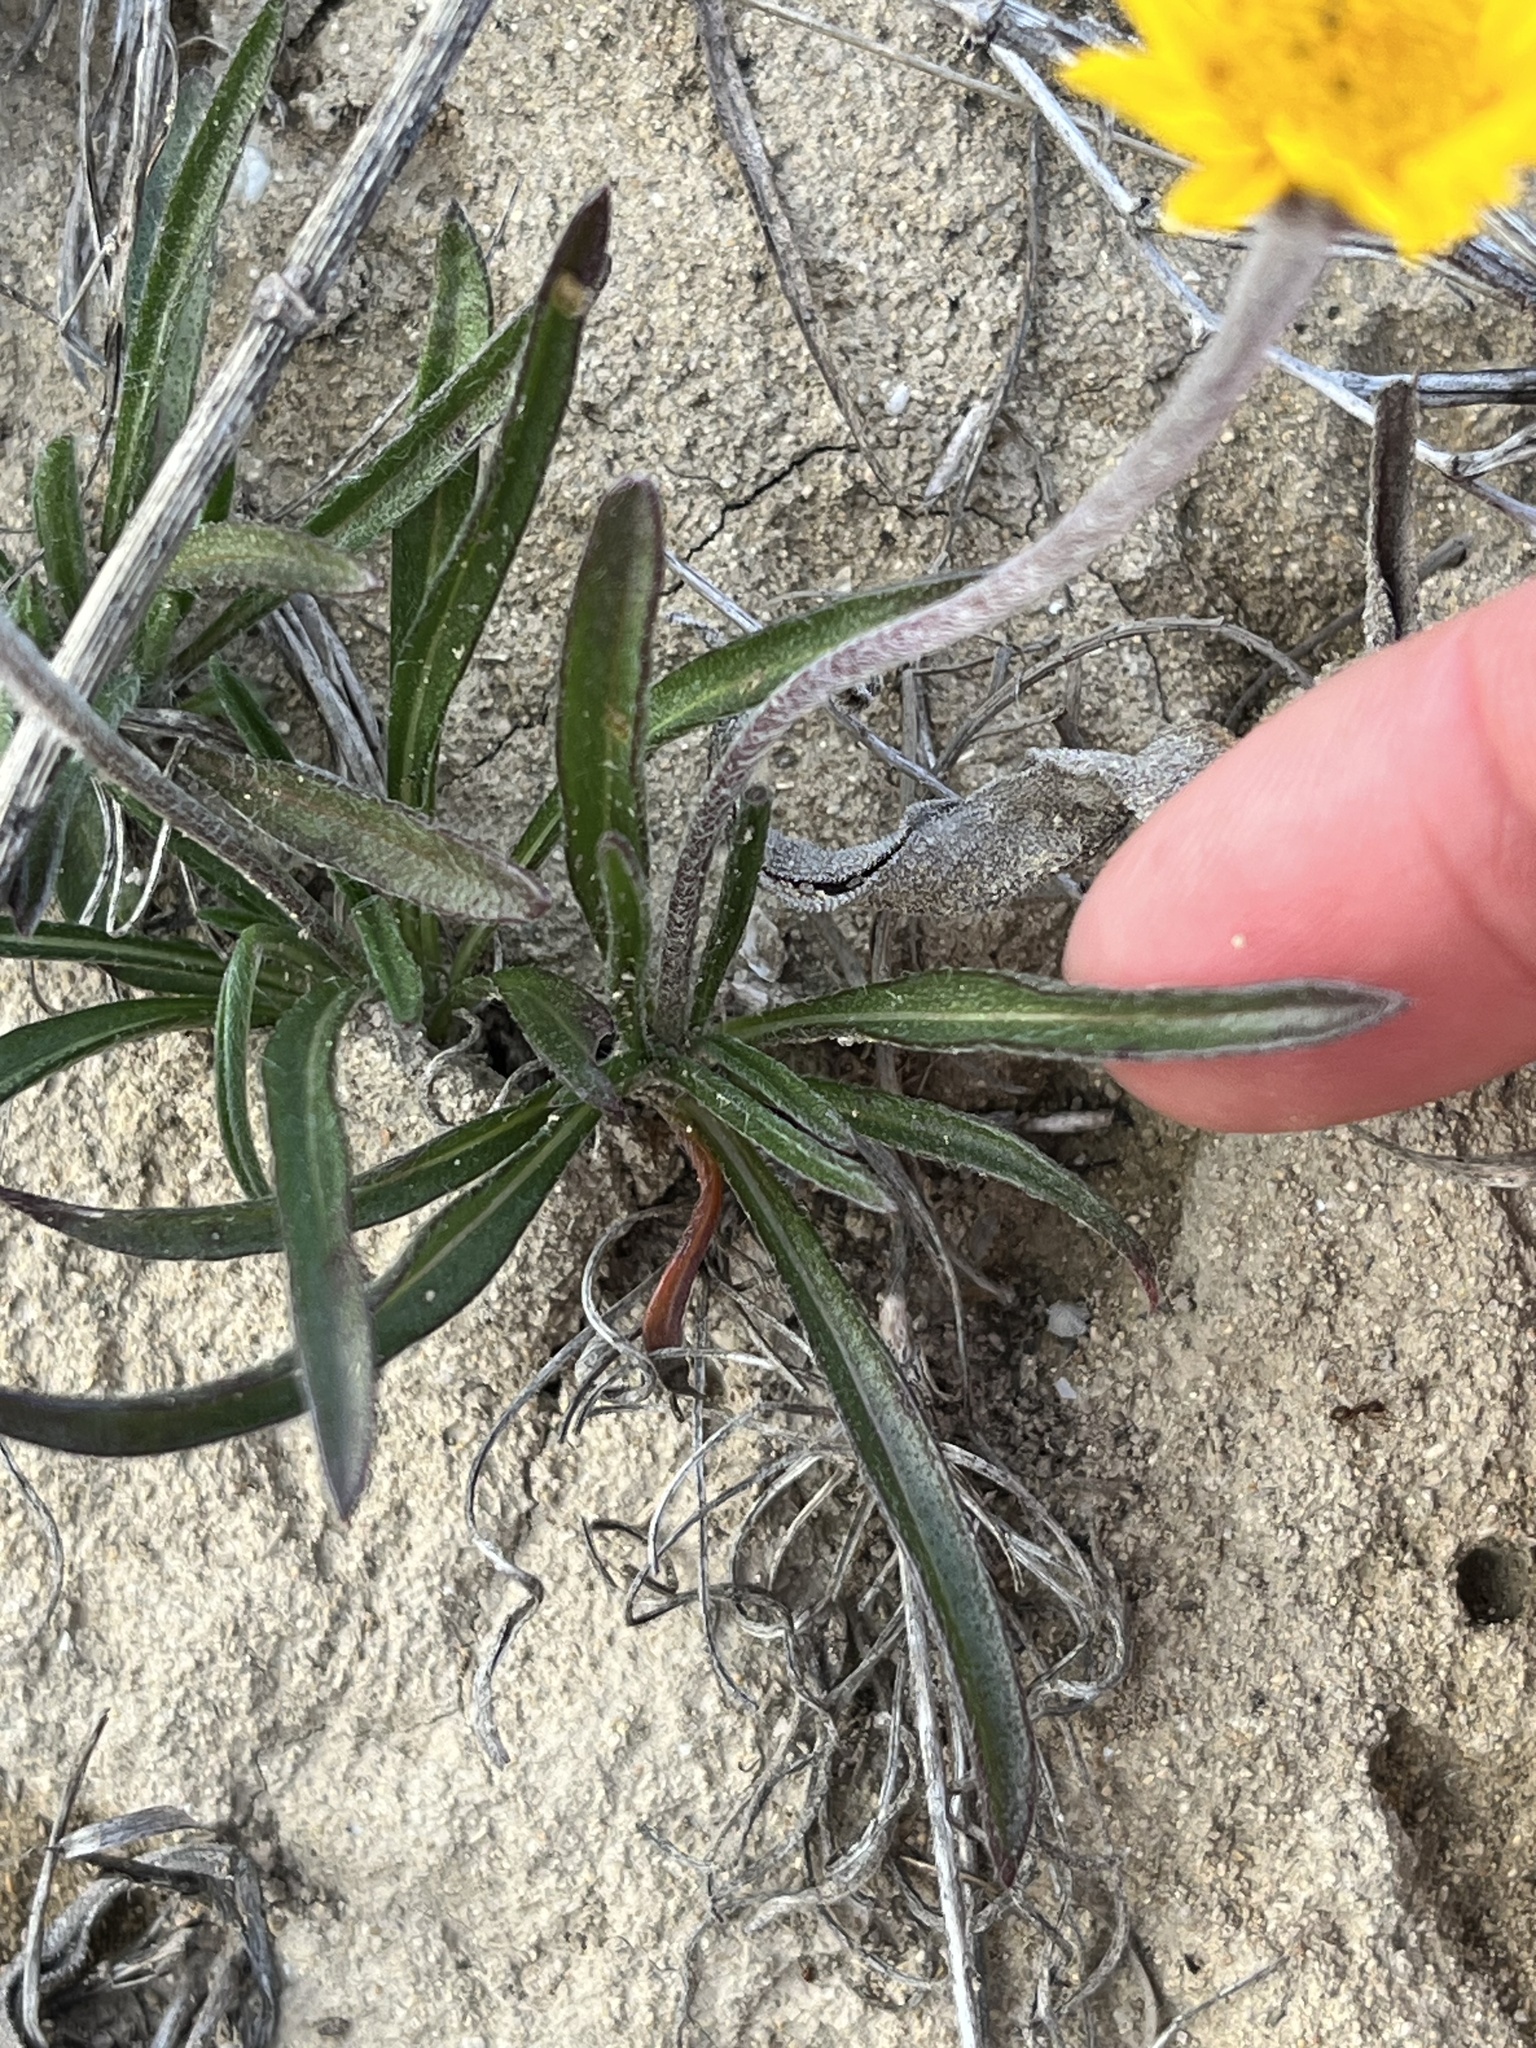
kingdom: Plantae
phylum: Tracheophyta
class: Magnoliopsida
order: Asterales
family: Asteraceae
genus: Tetraneuris
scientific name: Tetraneuris scaposa
